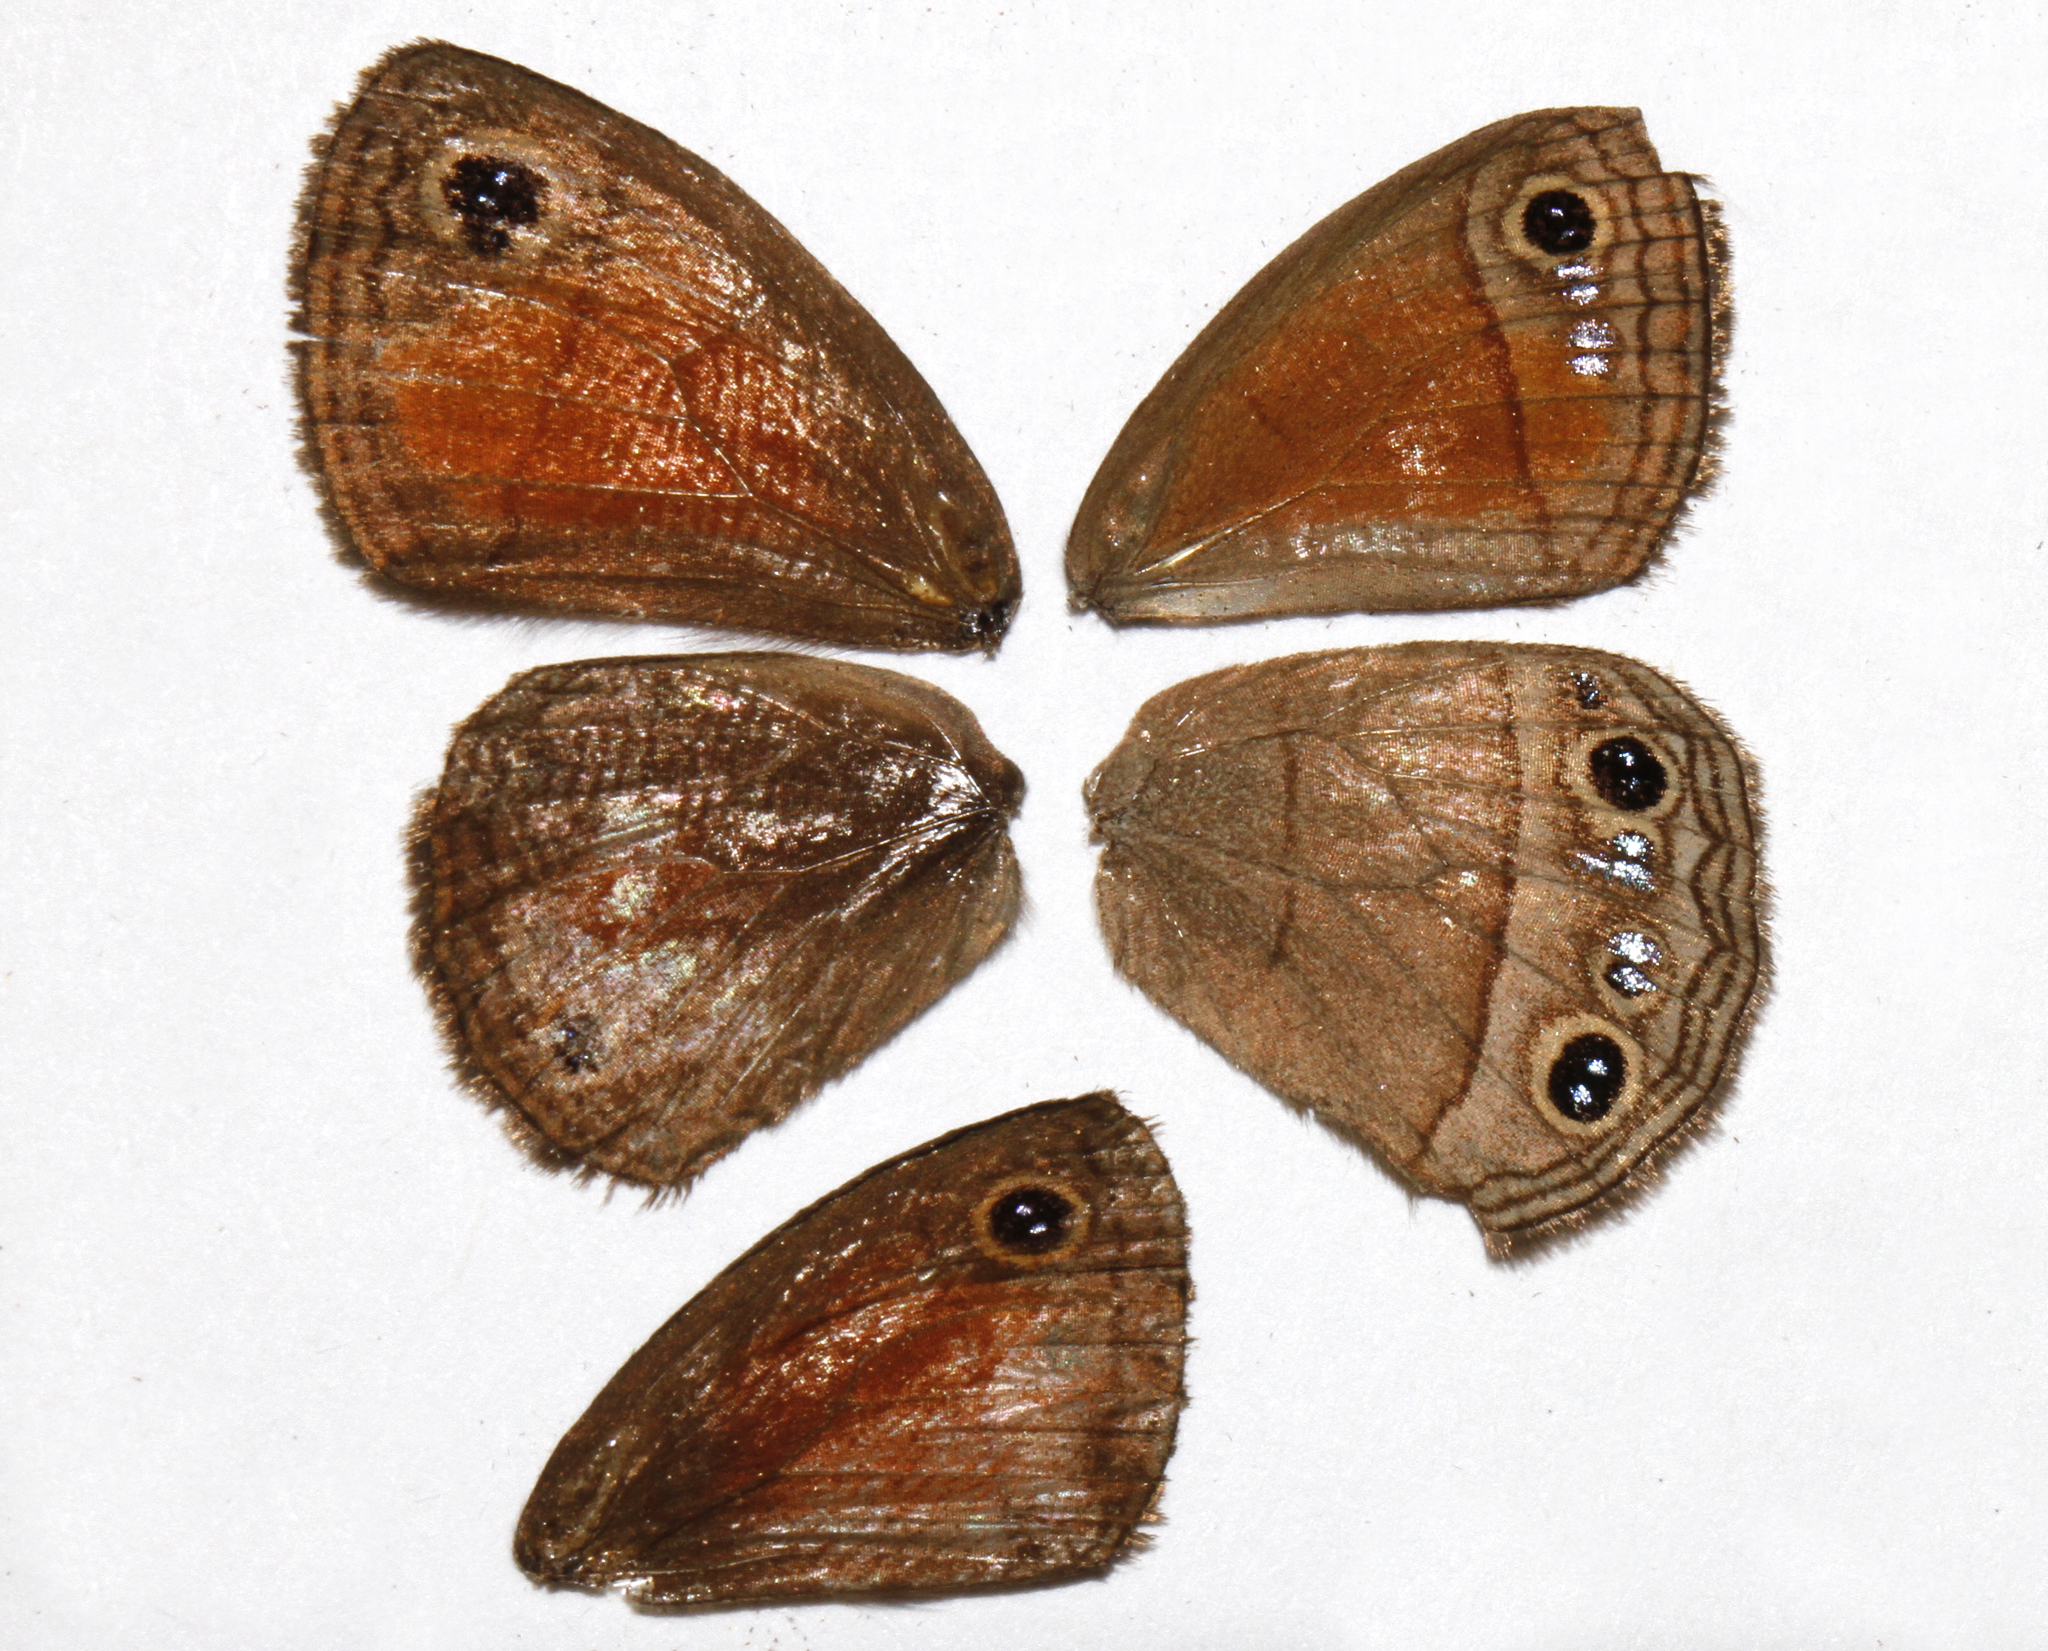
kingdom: Animalia
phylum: Arthropoda
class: Insecta
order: Lepidoptera
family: Nymphalidae
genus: Euptychia
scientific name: Euptychia Cissia rubricata
